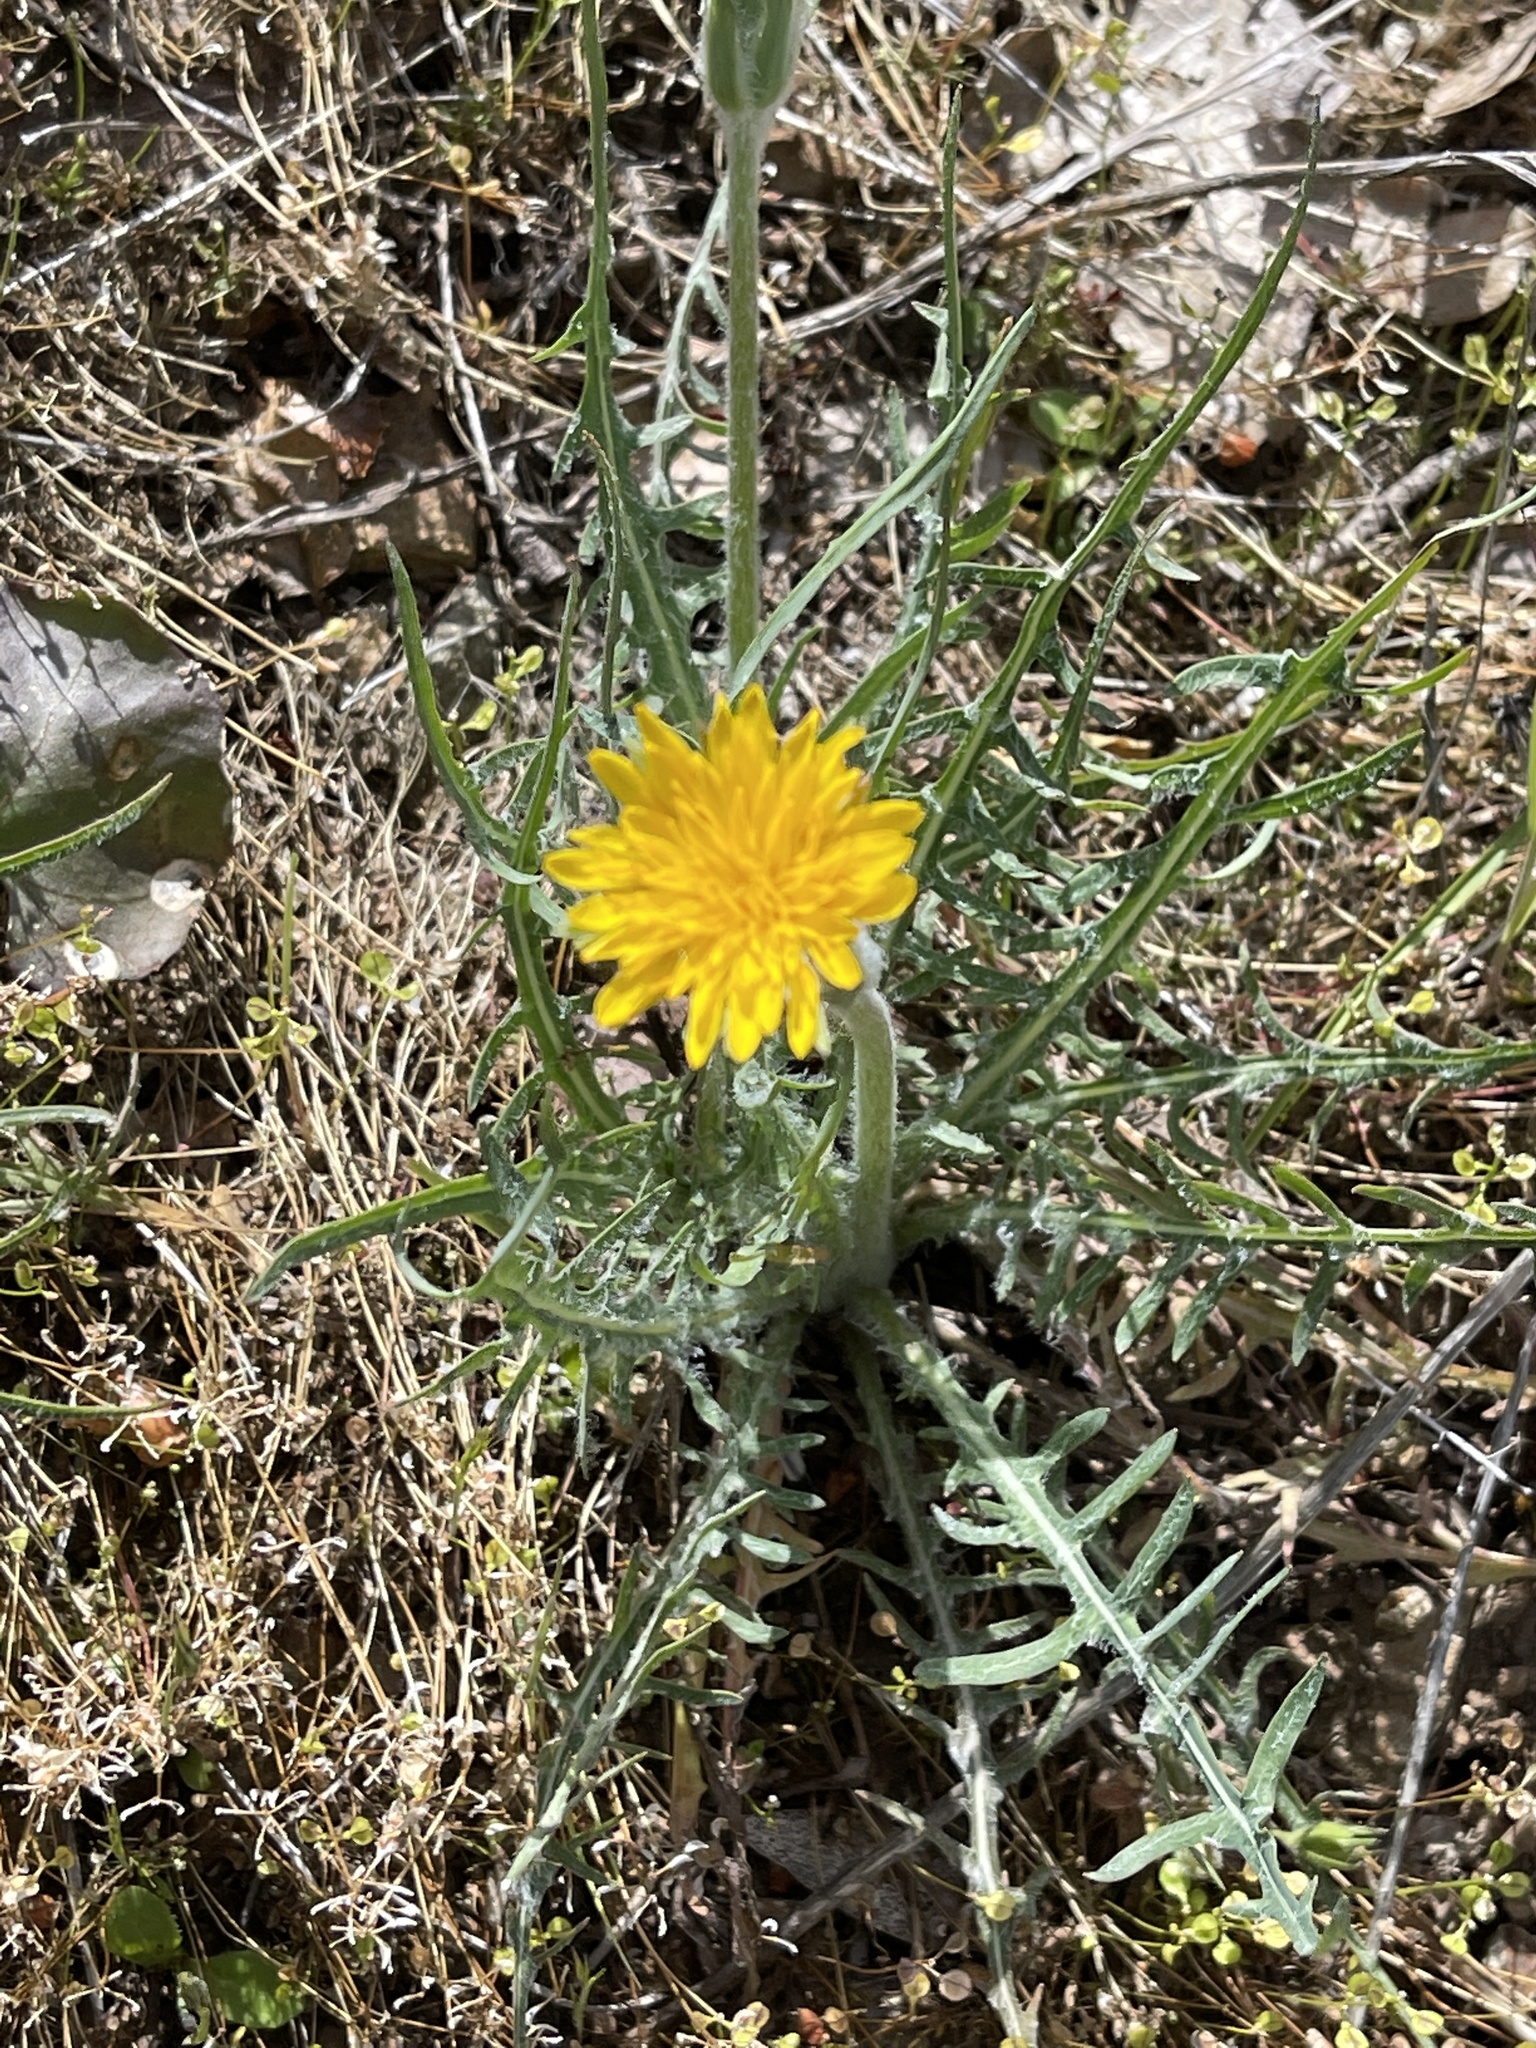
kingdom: Plantae
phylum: Tracheophyta
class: Magnoliopsida
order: Asterales
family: Asteraceae
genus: Agoseris
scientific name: Agoseris retrorsa
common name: Spearleaf agoseris
